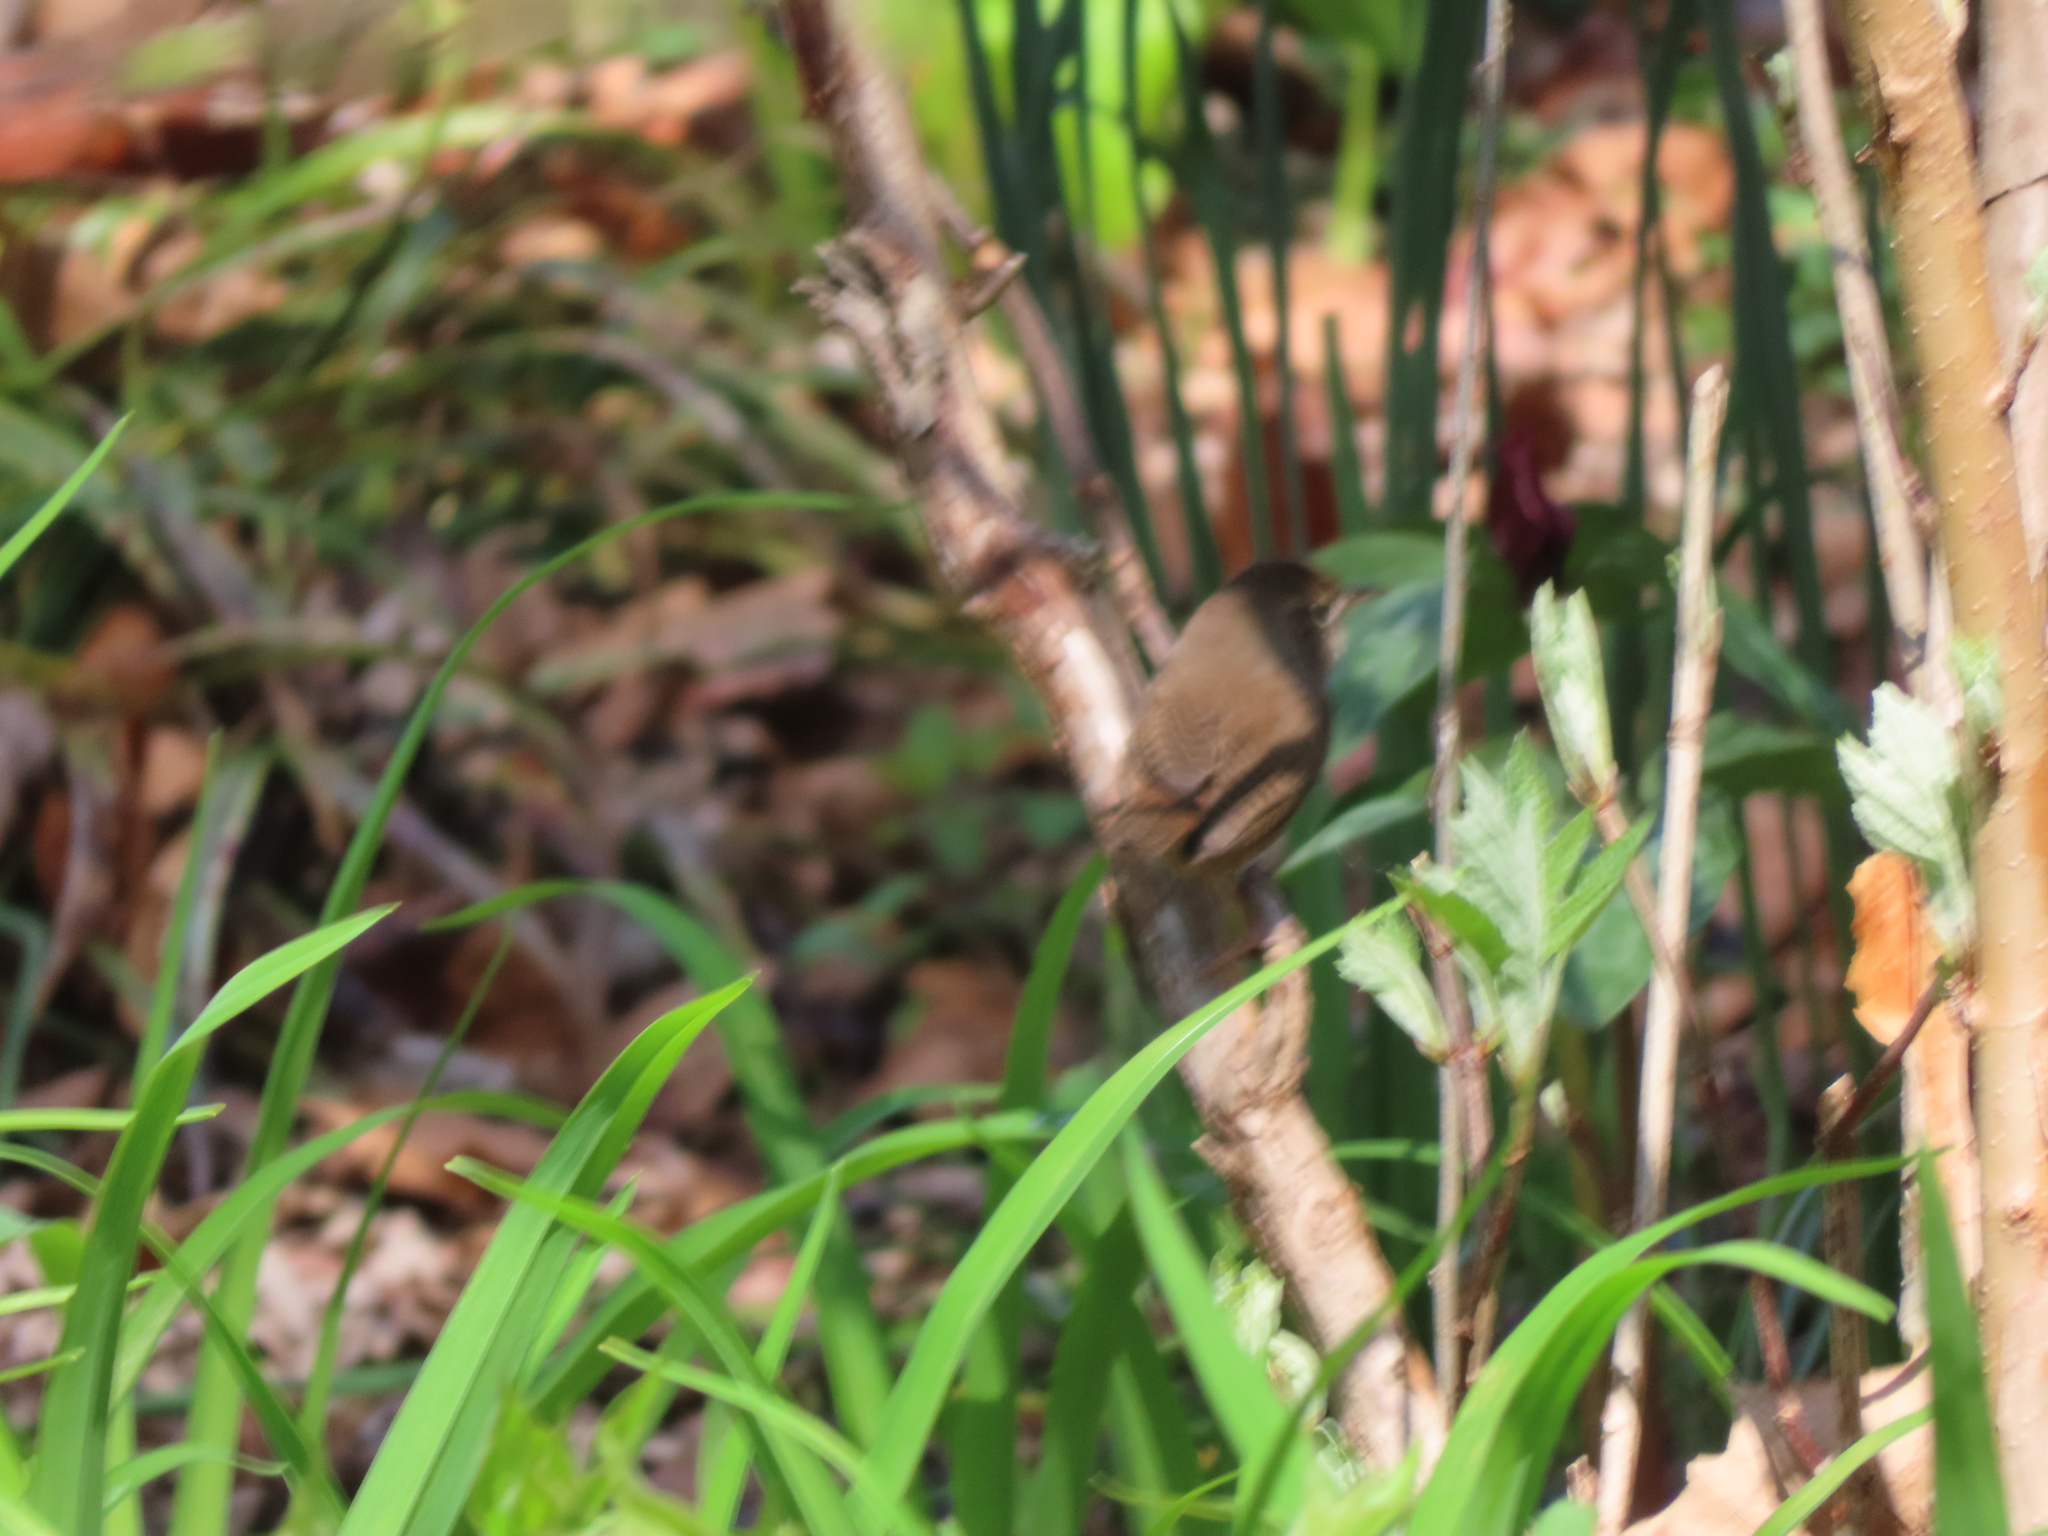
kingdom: Animalia
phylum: Chordata
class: Aves
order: Passeriformes
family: Troglodytidae
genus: Troglodytes
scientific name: Troglodytes aedon
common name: House wren
